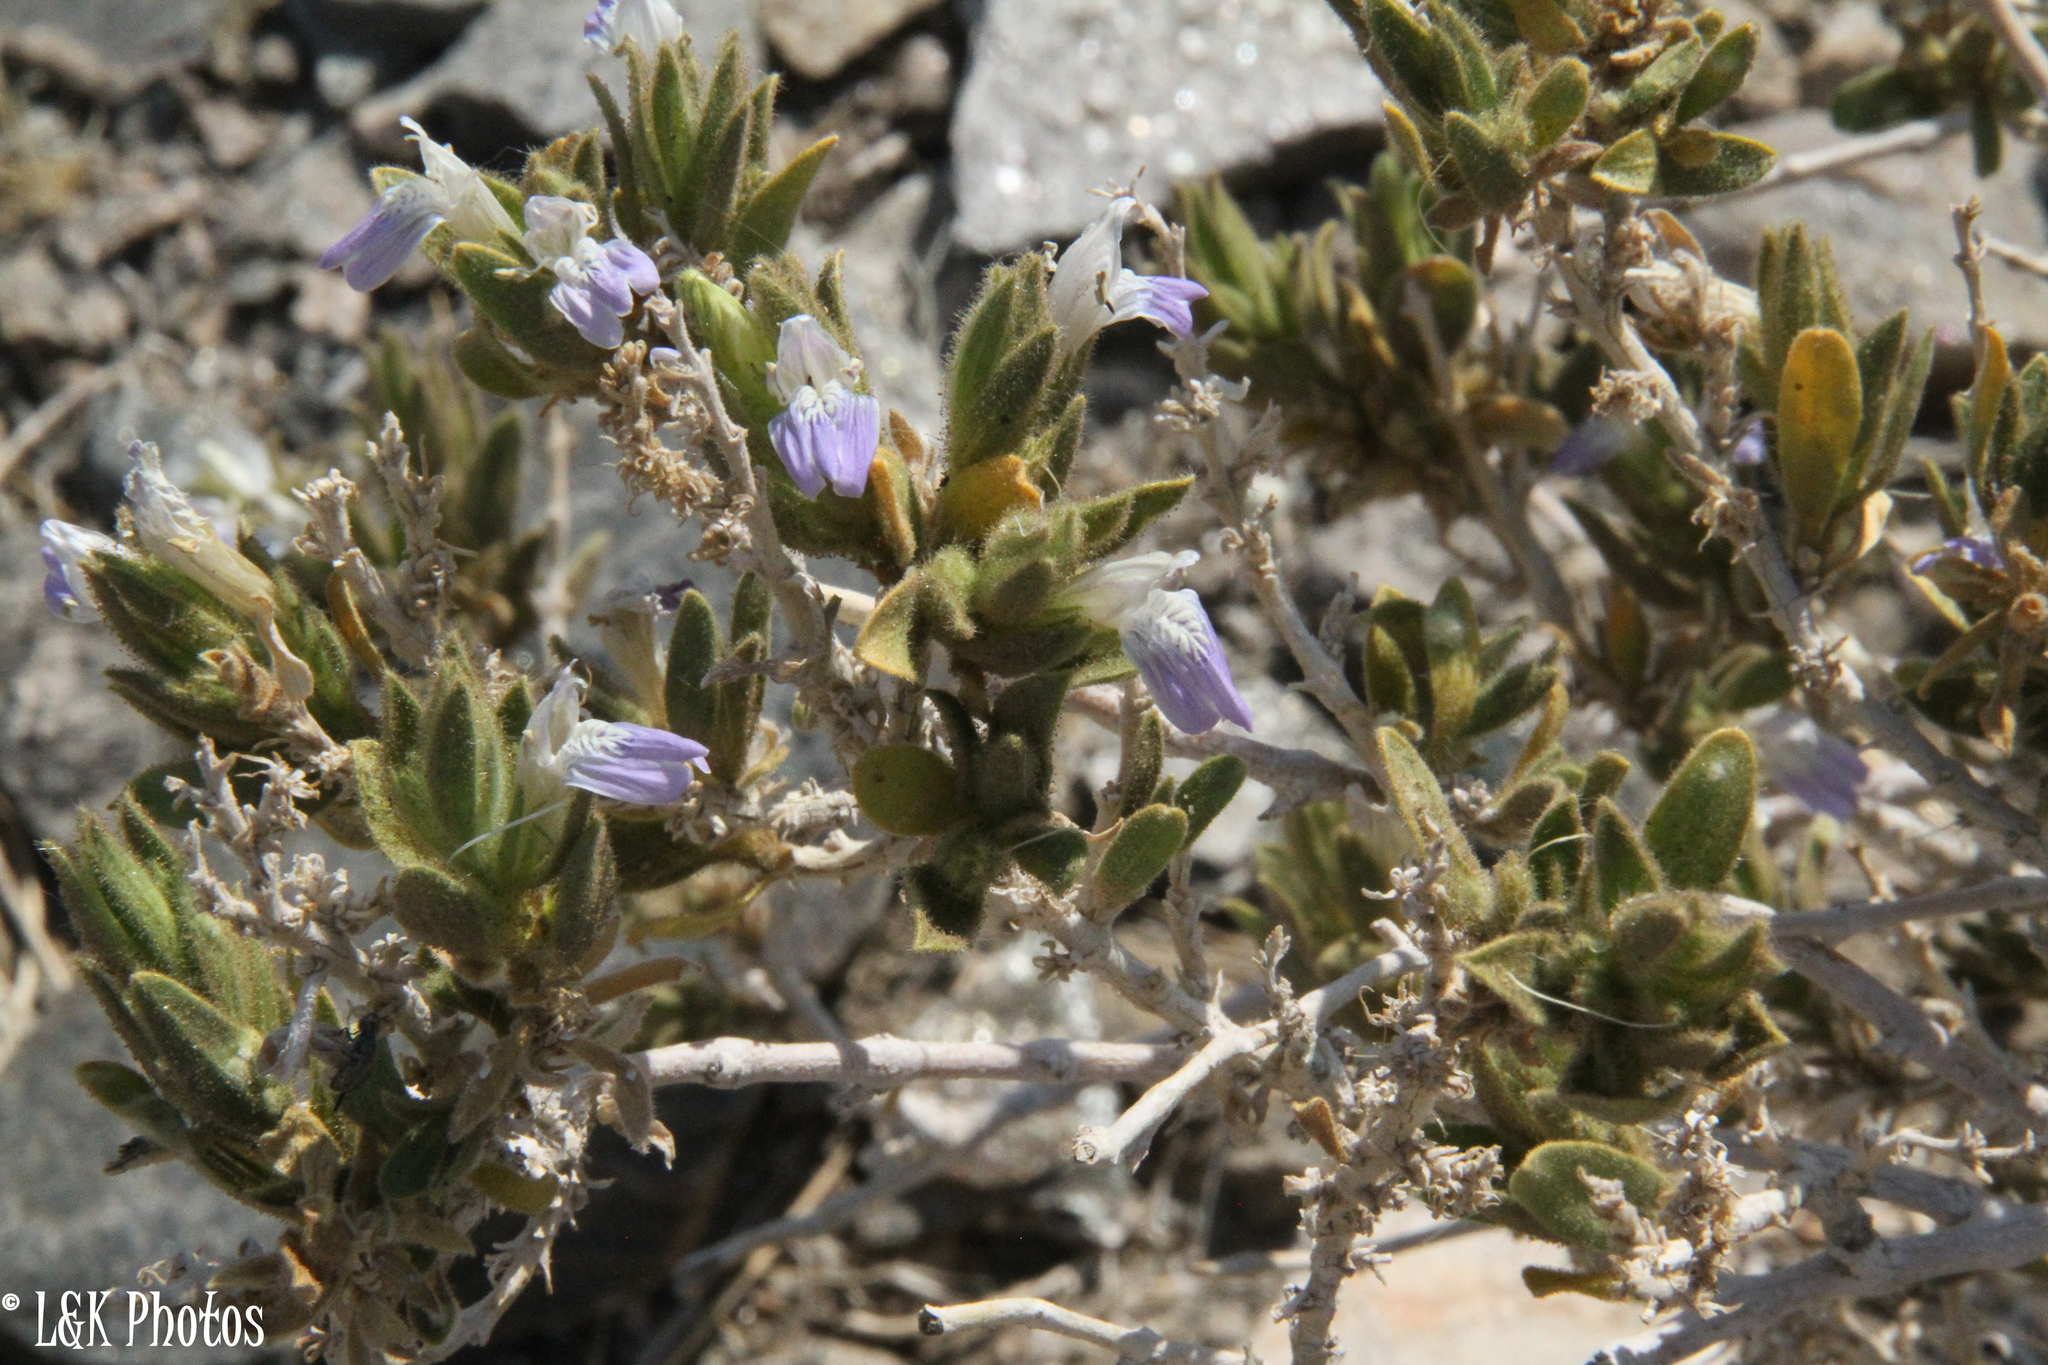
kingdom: Plantae
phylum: Tracheophyta
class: Magnoliopsida
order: Lamiales
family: Acanthaceae
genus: Pogonospermum
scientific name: Pogonospermum
